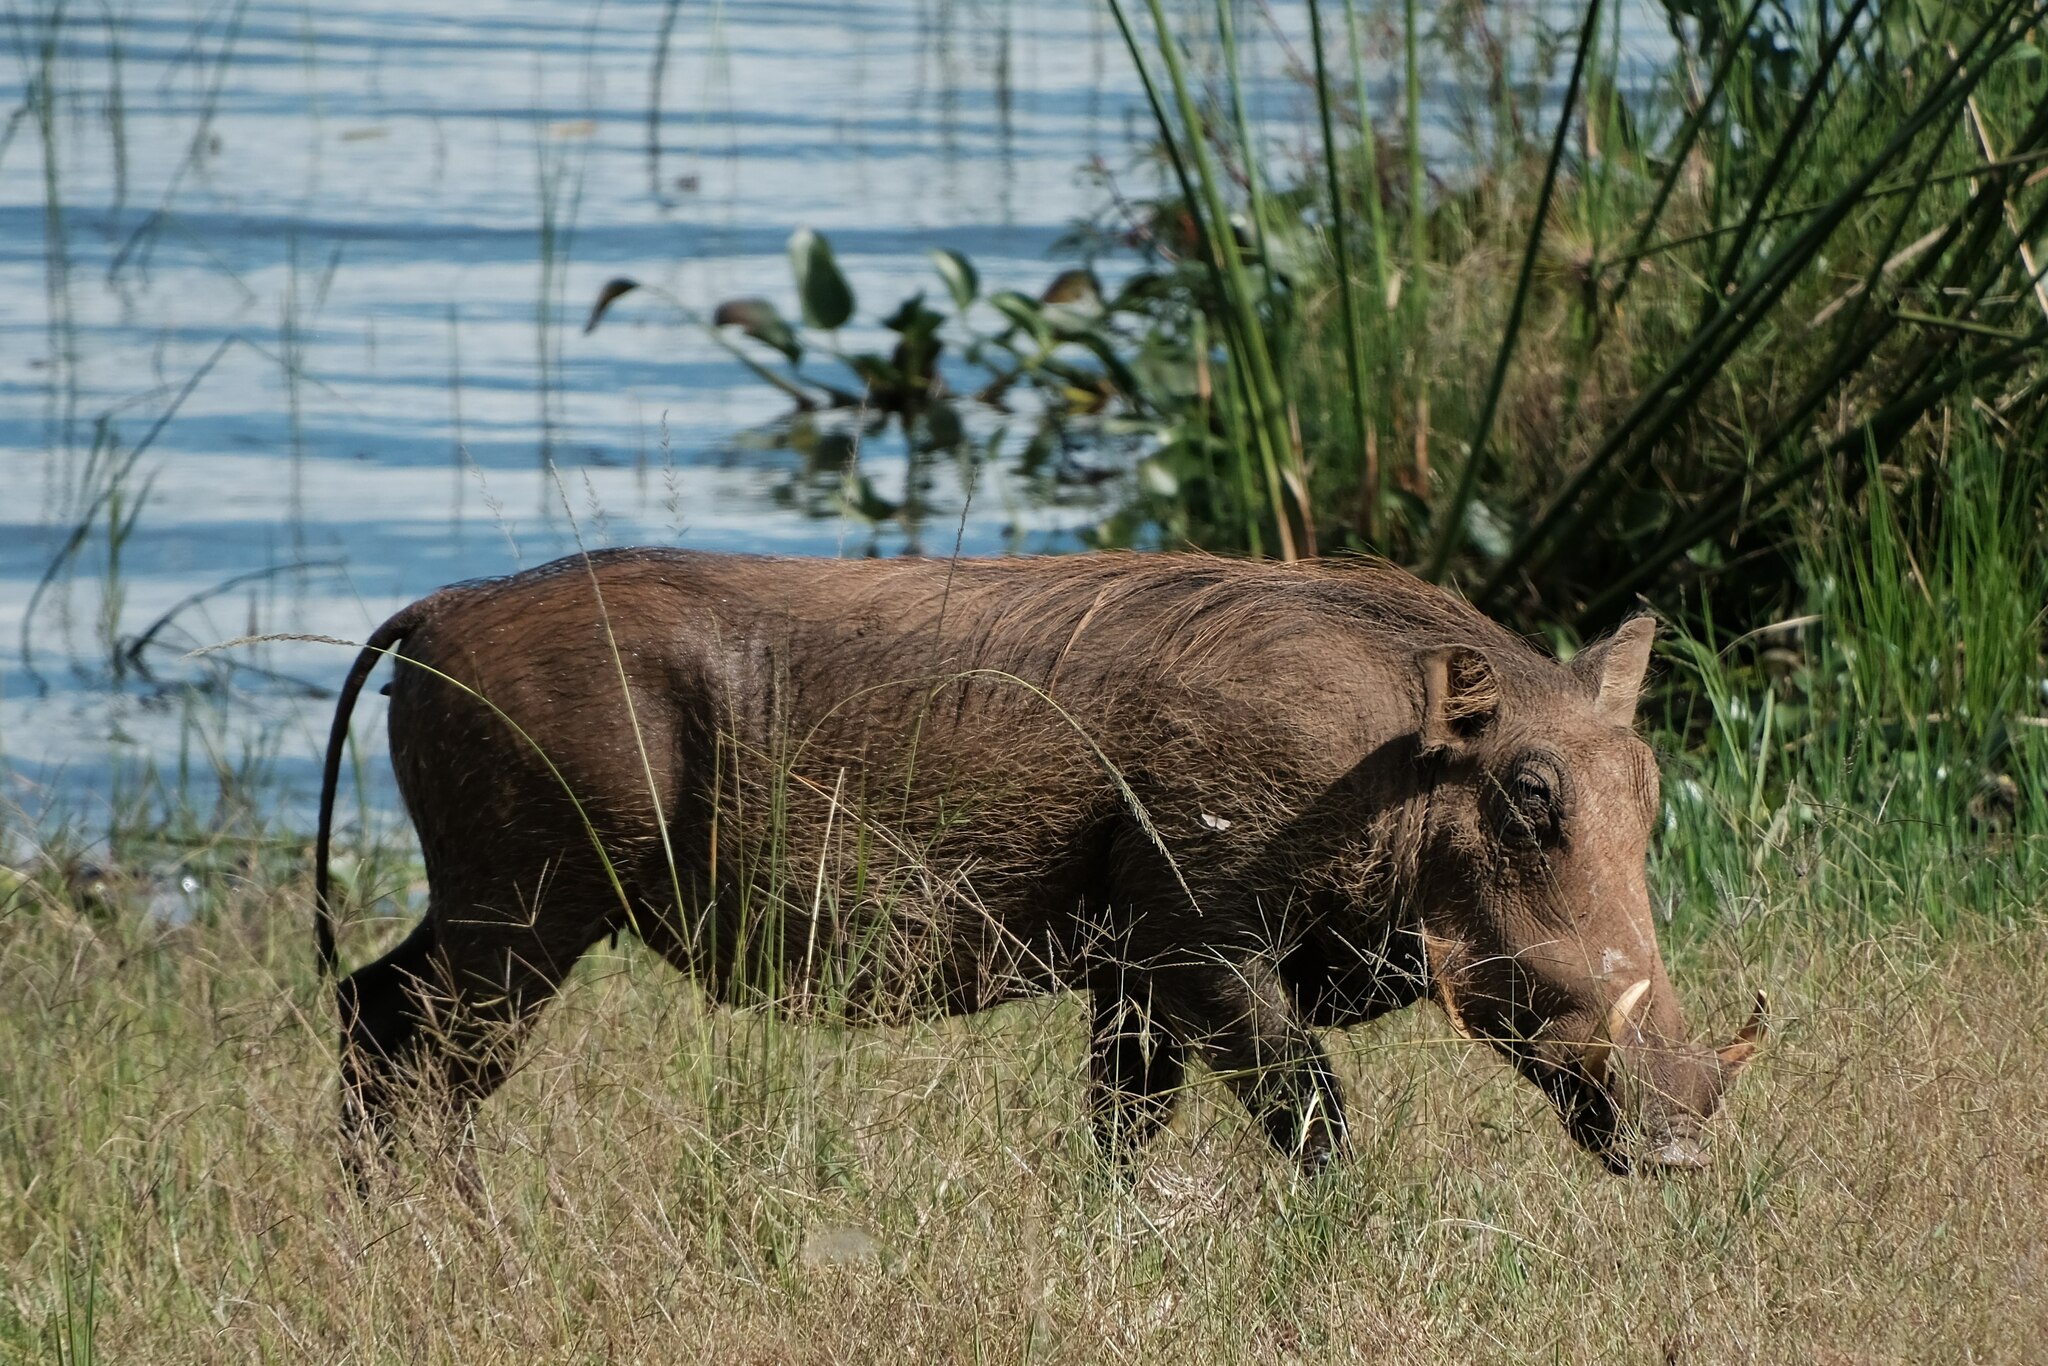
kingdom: Animalia
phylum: Chordata
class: Mammalia
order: Artiodactyla
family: Suidae
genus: Phacochoerus
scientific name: Phacochoerus africanus
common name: Common warthog
